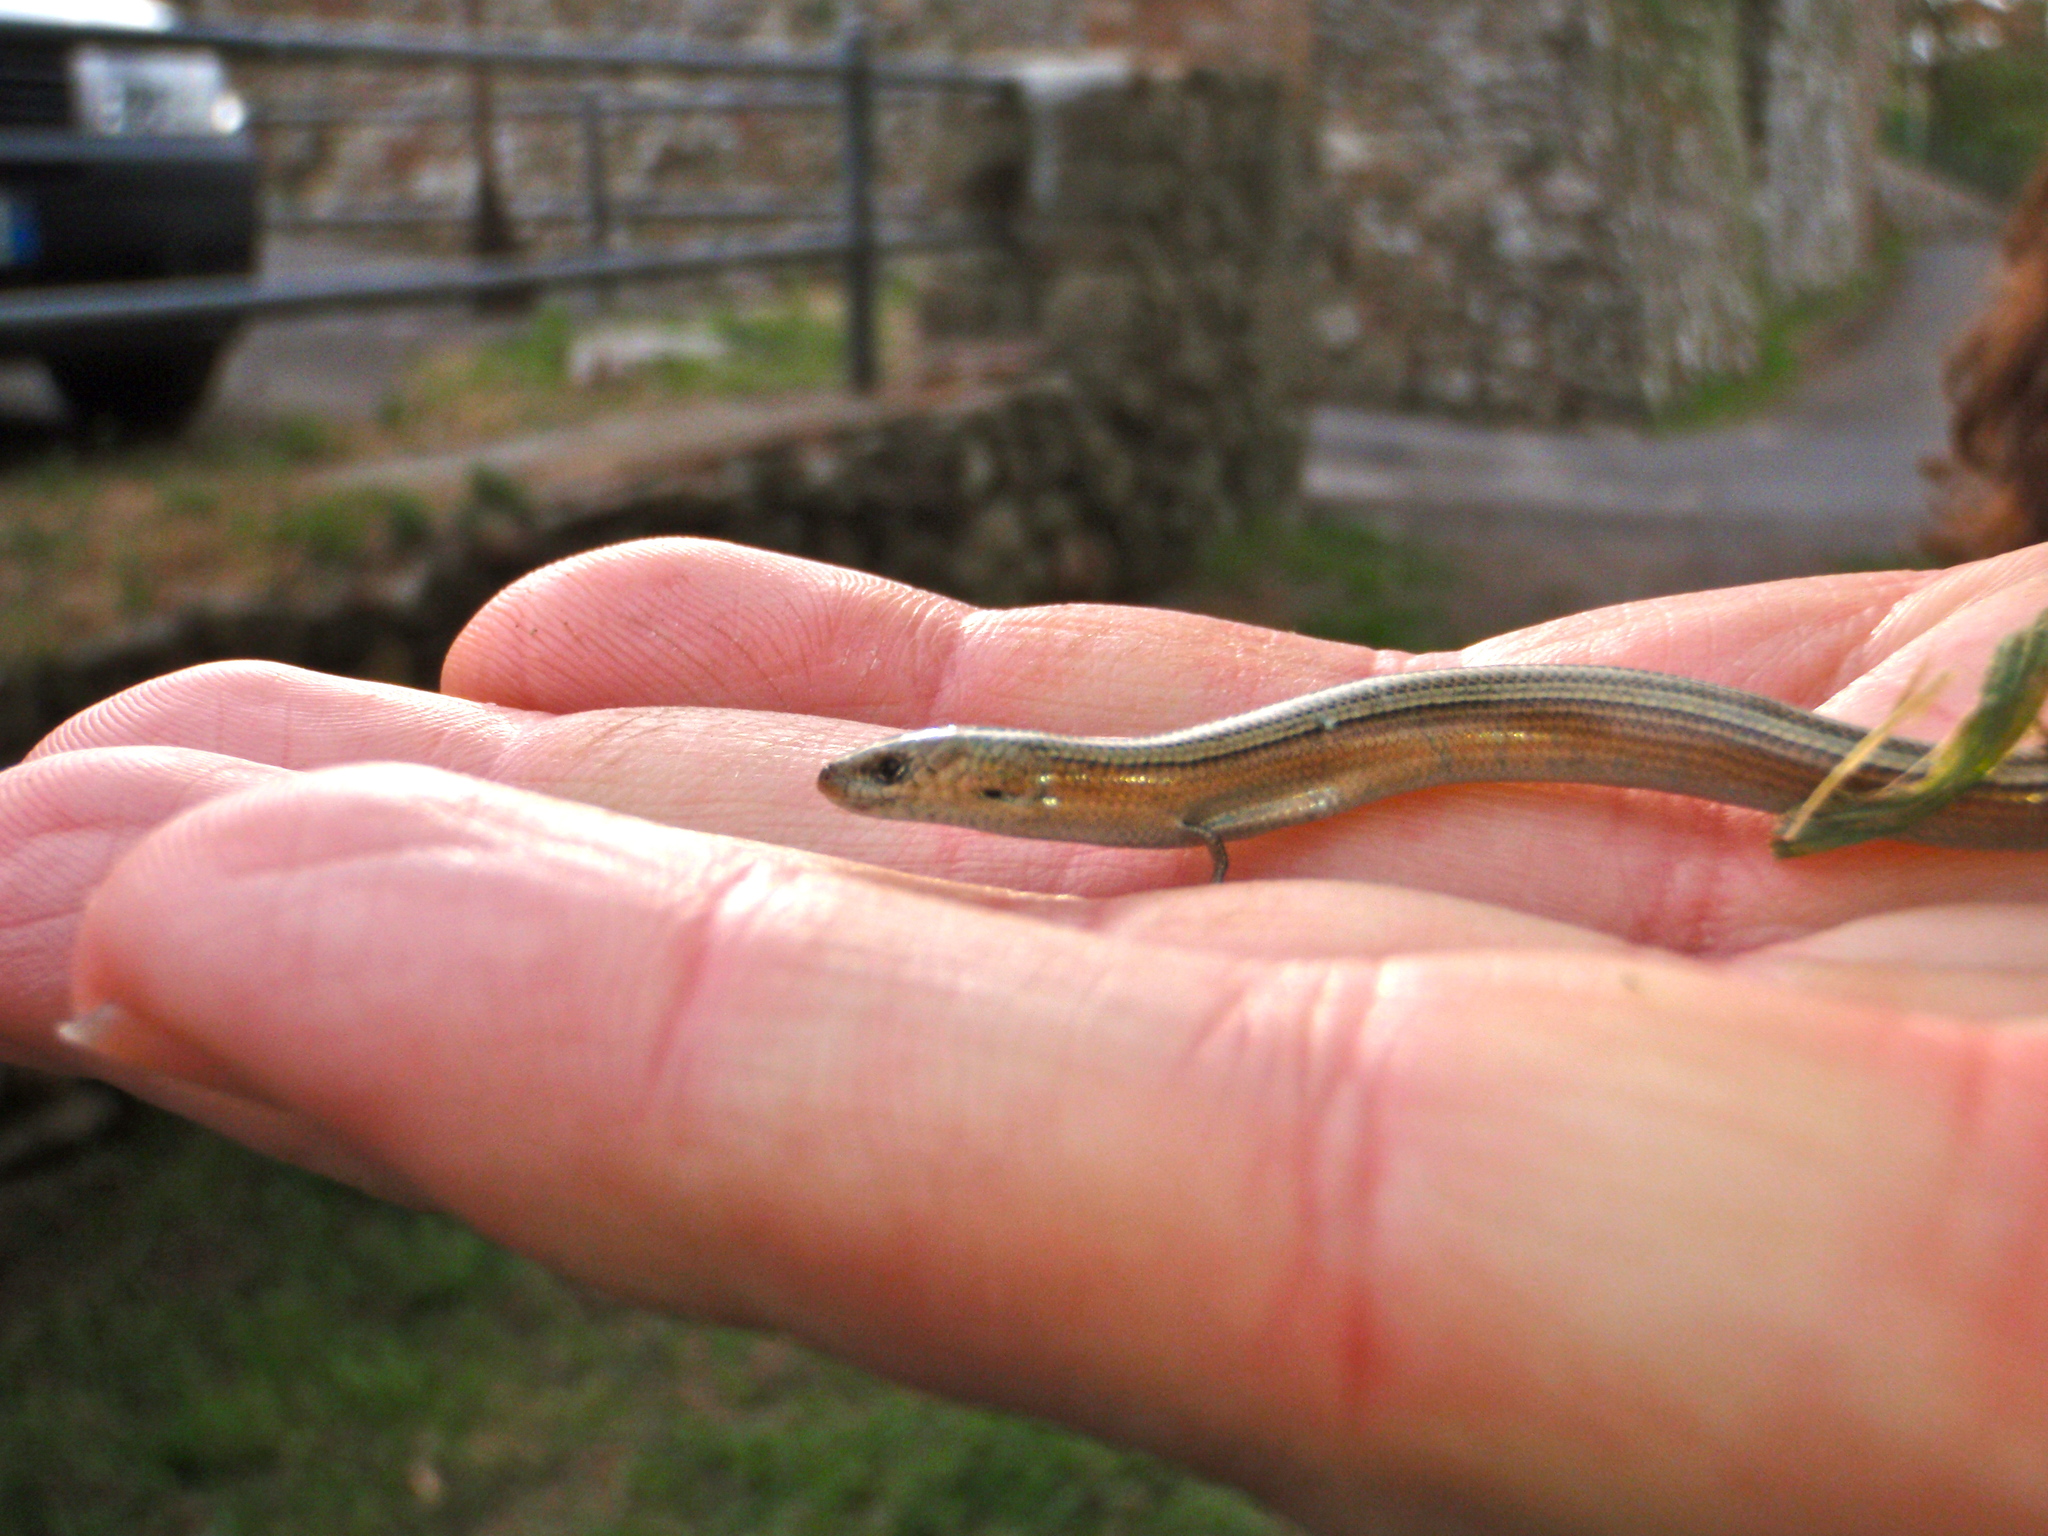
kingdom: Animalia
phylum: Chordata
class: Squamata
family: Scincidae
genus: Chalcides
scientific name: Chalcides chalcides
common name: Italian three-toed skink
